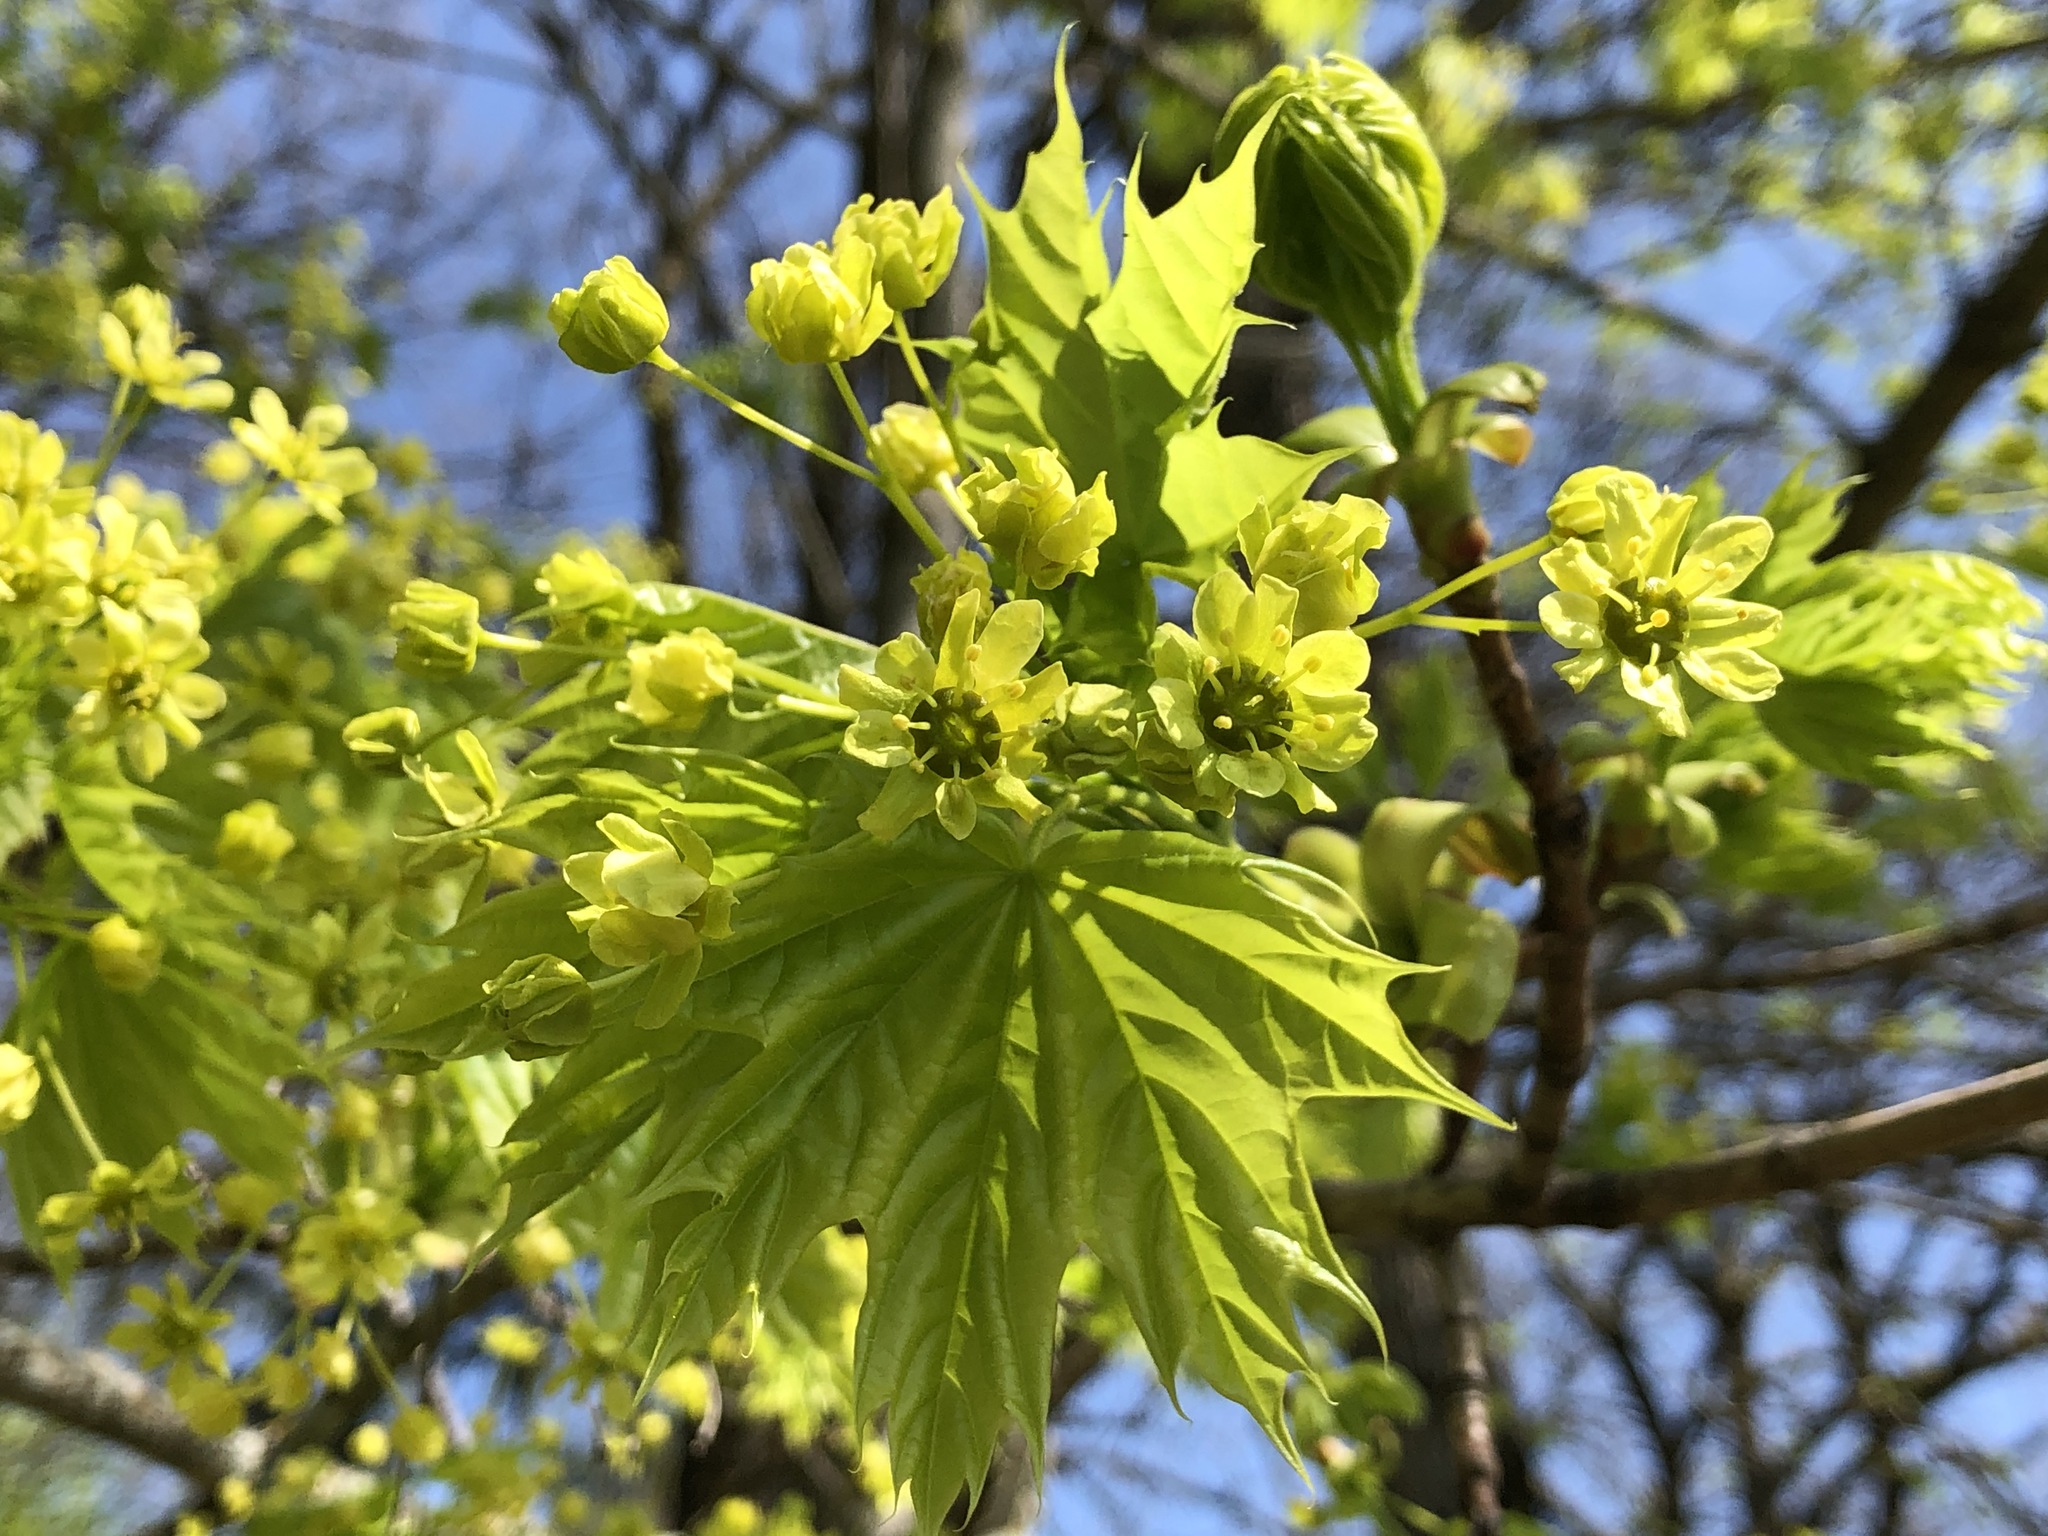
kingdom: Plantae
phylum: Tracheophyta
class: Magnoliopsida
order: Sapindales
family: Sapindaceae
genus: Acer
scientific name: Acer platanoides
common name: Norway maple
